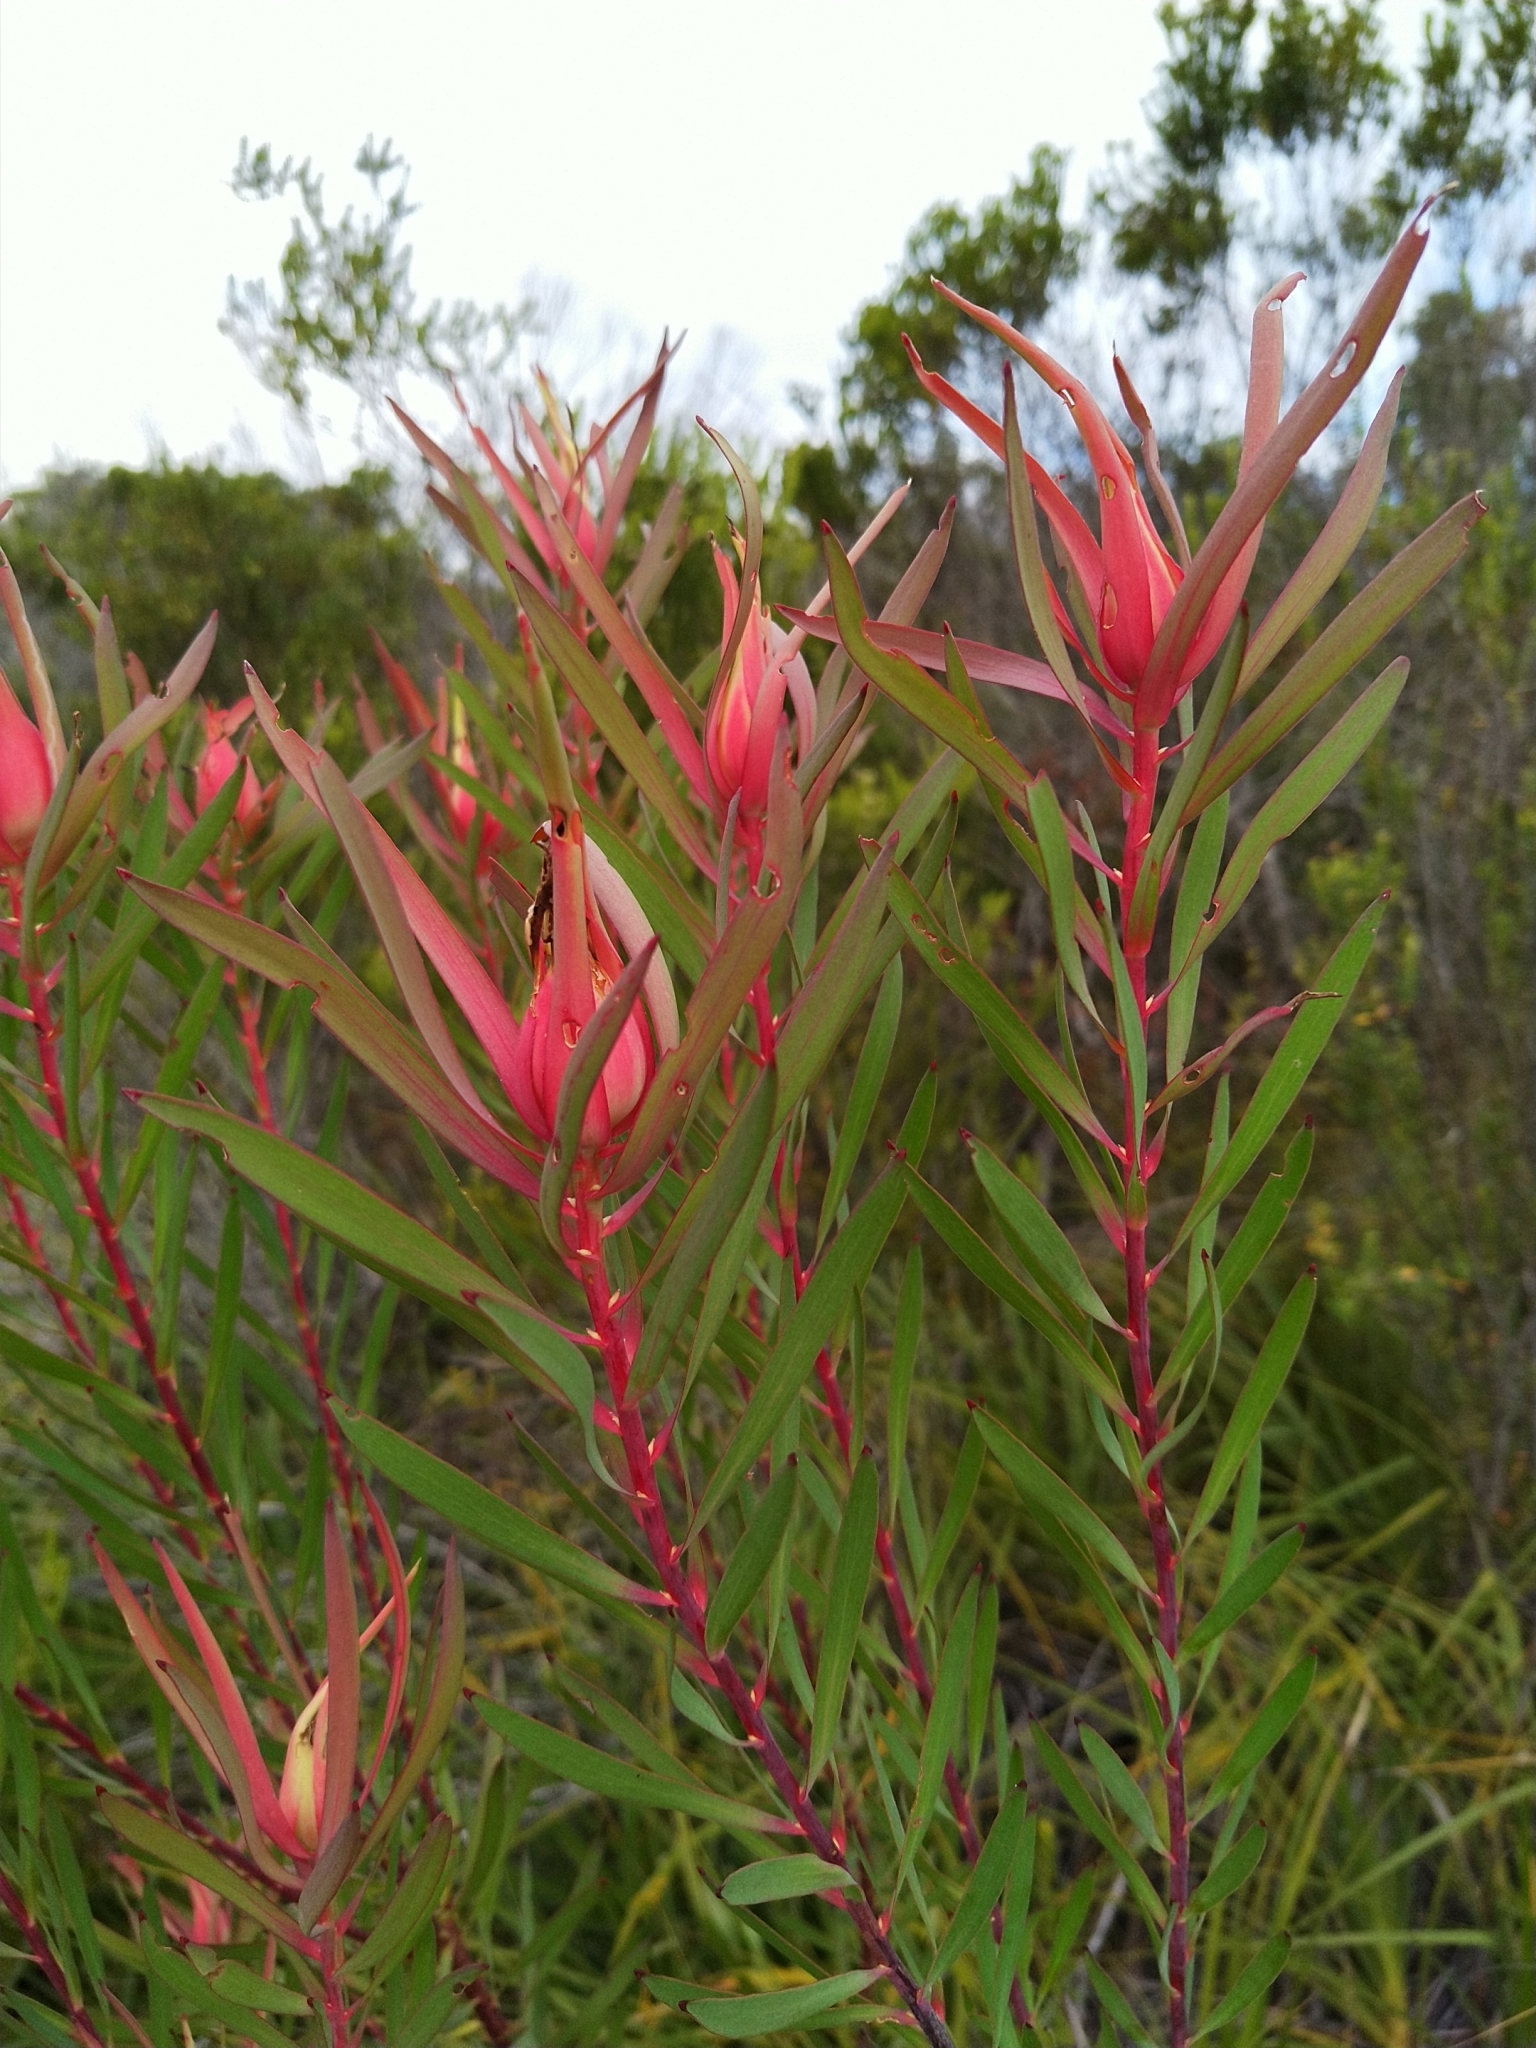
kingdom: Plantae
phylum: Tracheophyta
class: Magnoliopsida
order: Proteales
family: Proteaceae
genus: Leucadendron
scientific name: Leucadendron salignum
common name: Common sunshine conebush
